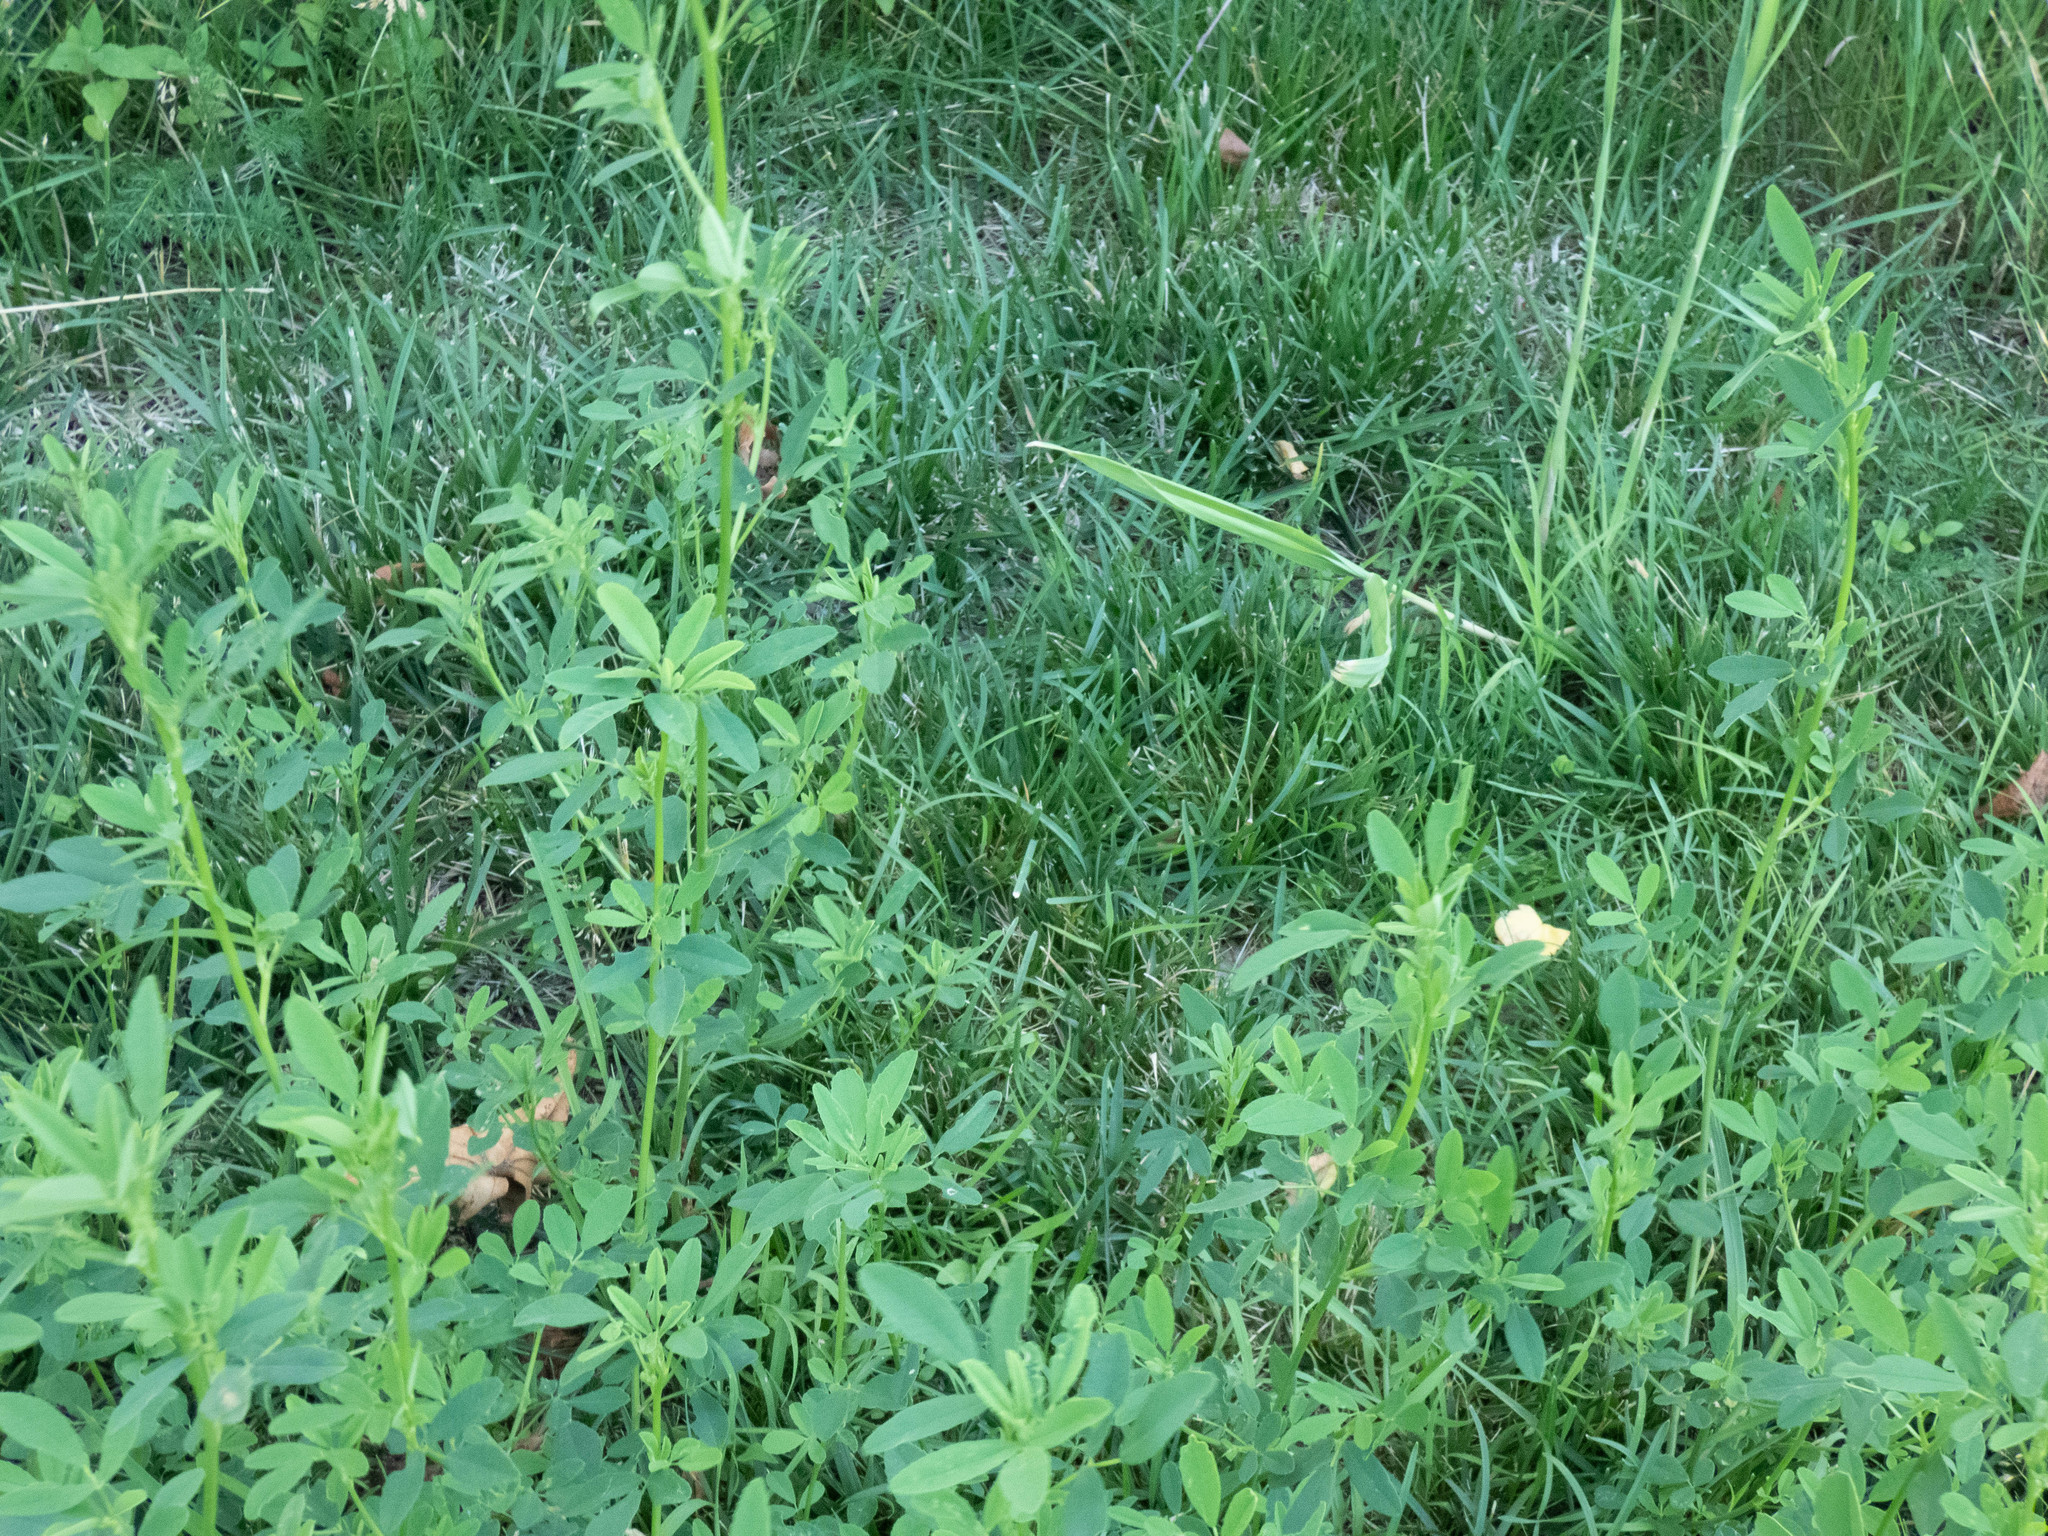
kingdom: Plantae
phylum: Tracheophyta
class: Magnoliopsida
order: Fabales
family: Fabaceae
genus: Melilotus
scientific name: Melilotus
